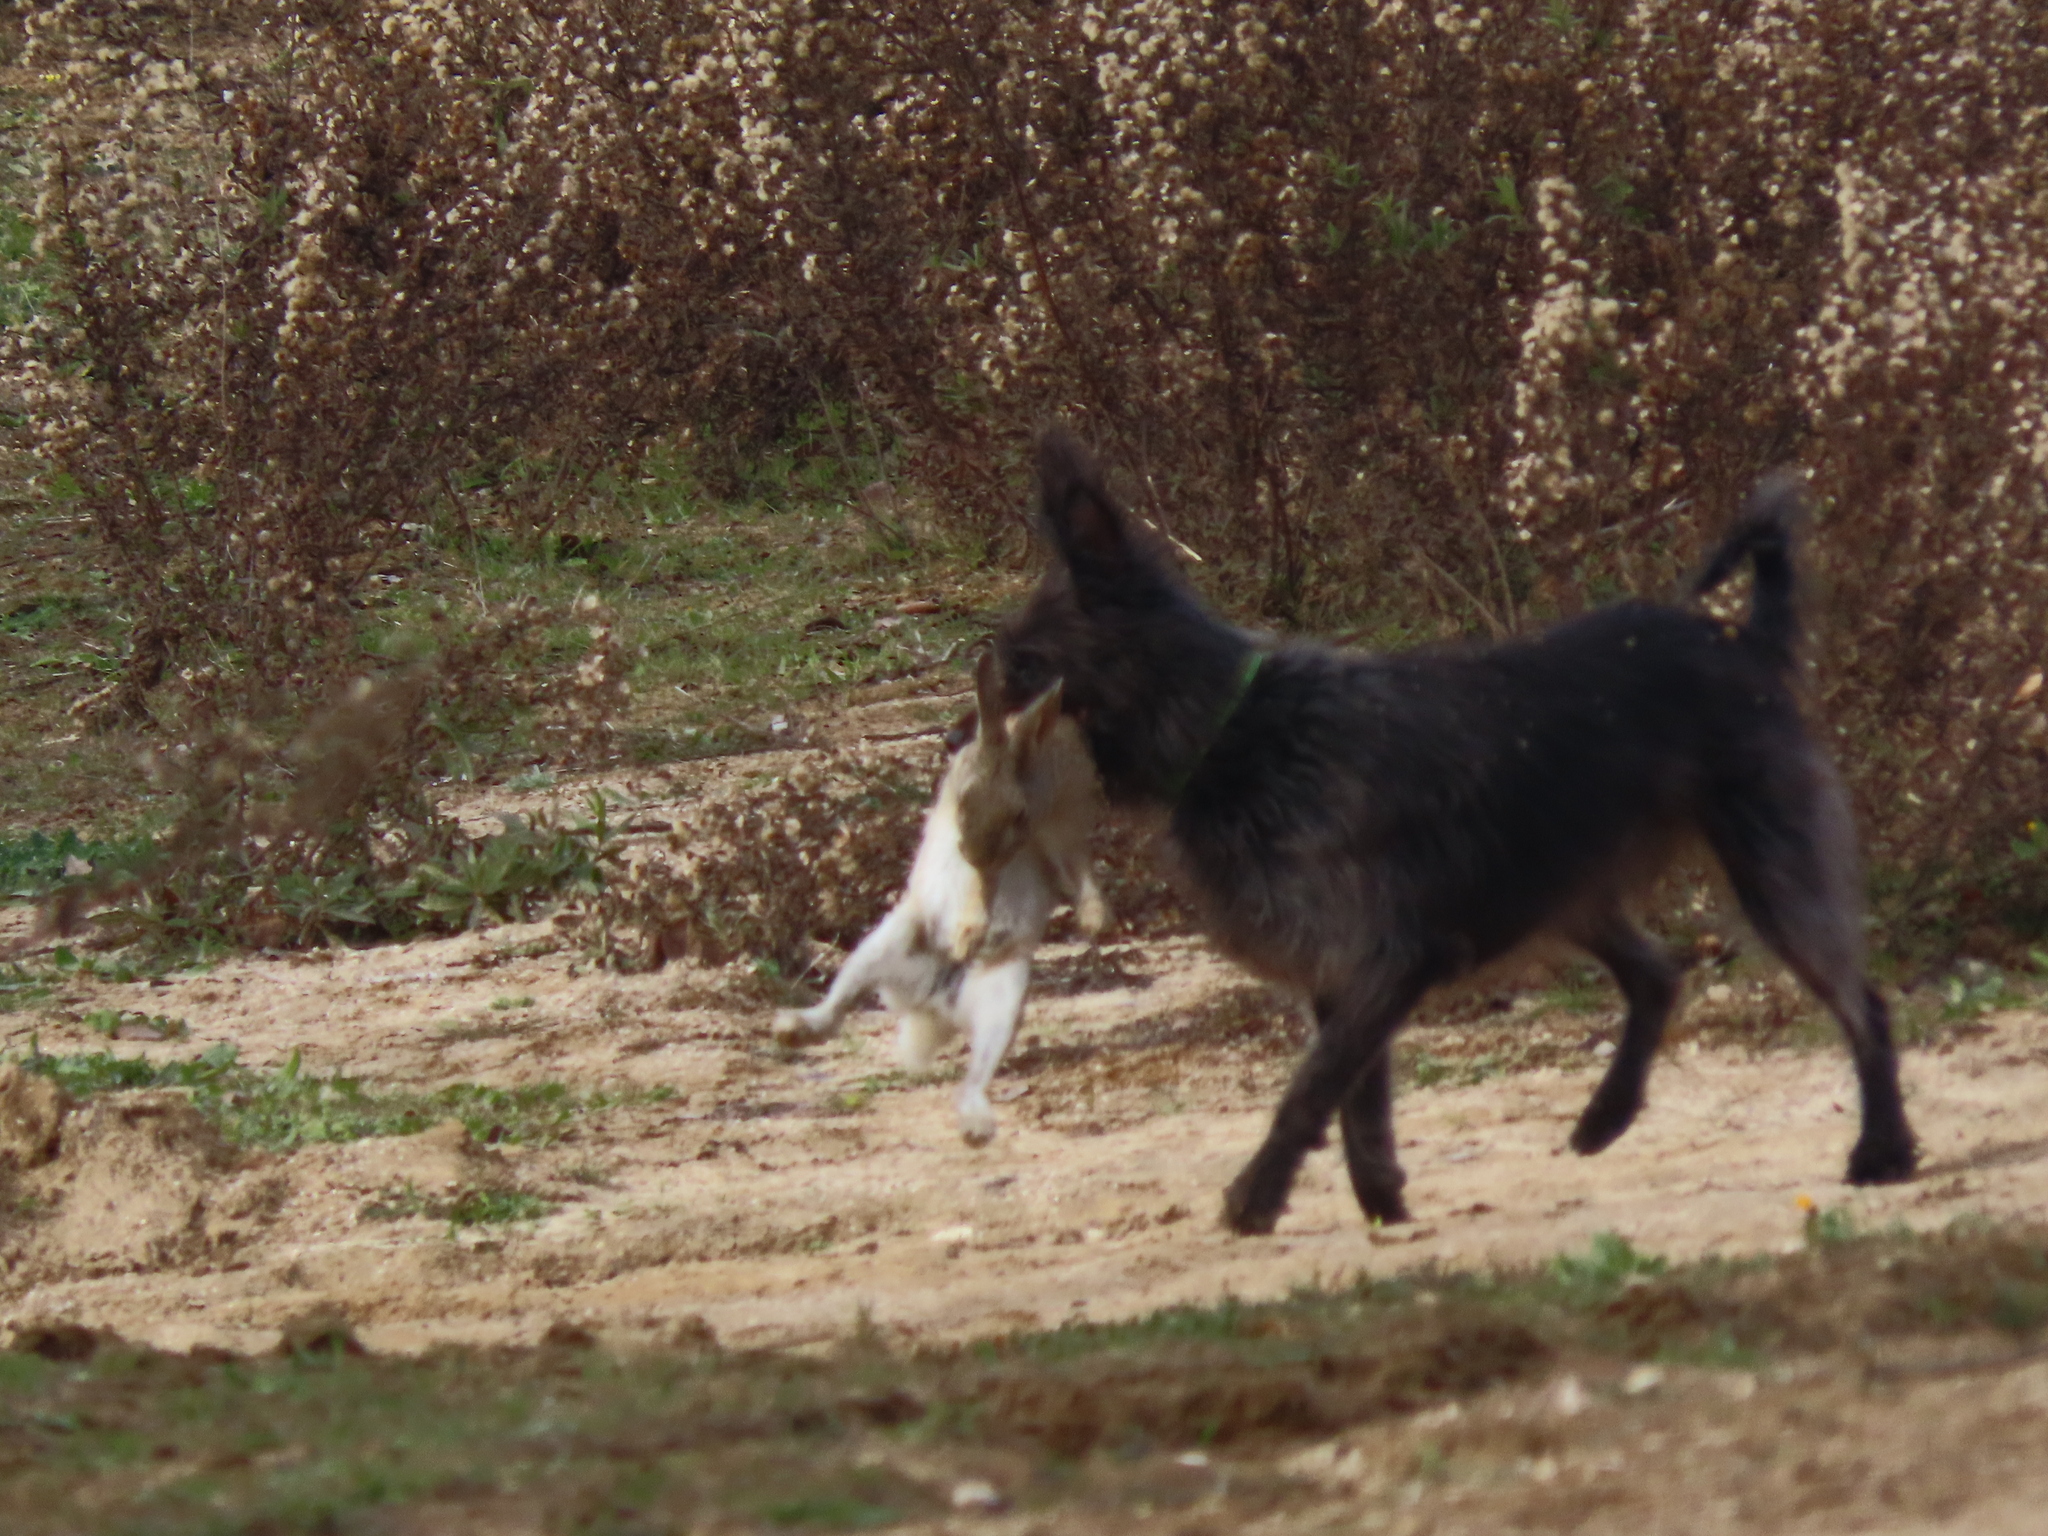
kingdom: Animalia
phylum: Chordata
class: Mammalia
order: Lagomorpha
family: Leporidae
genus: Oryctolagus
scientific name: Oryctolagus cuniculus
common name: European rabbit
